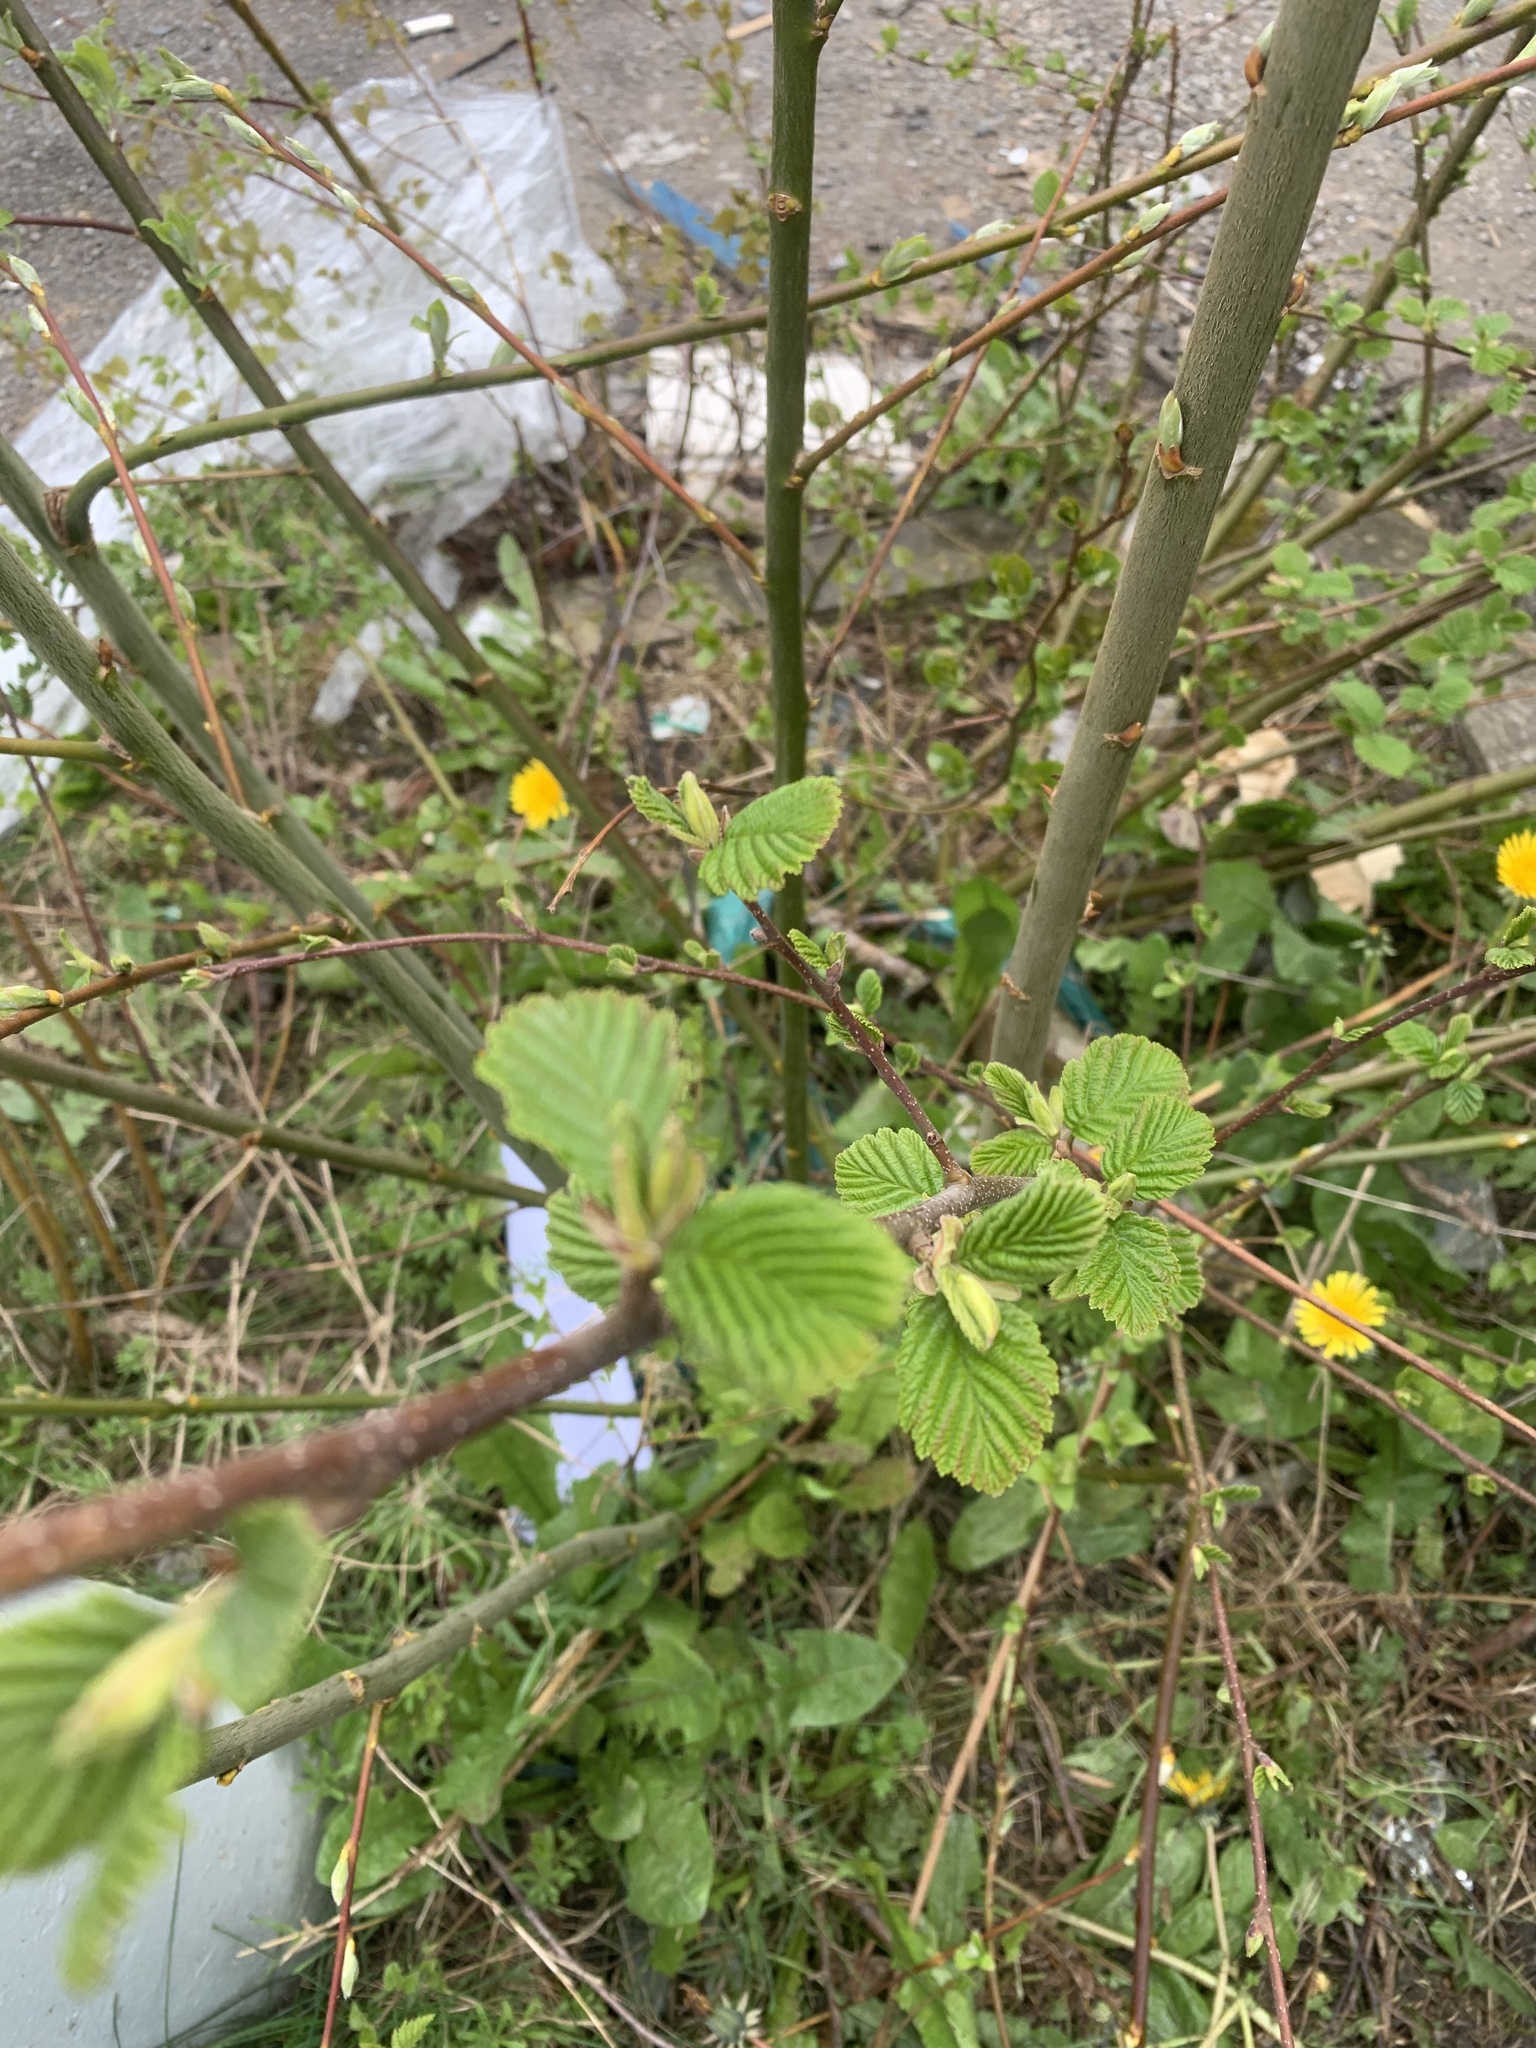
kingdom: Plantae
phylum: Tracheophyta
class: Magnoliopsida
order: Fagales
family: Betulaceae
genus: Alnus
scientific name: Alnus glutinosa
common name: Black alder
